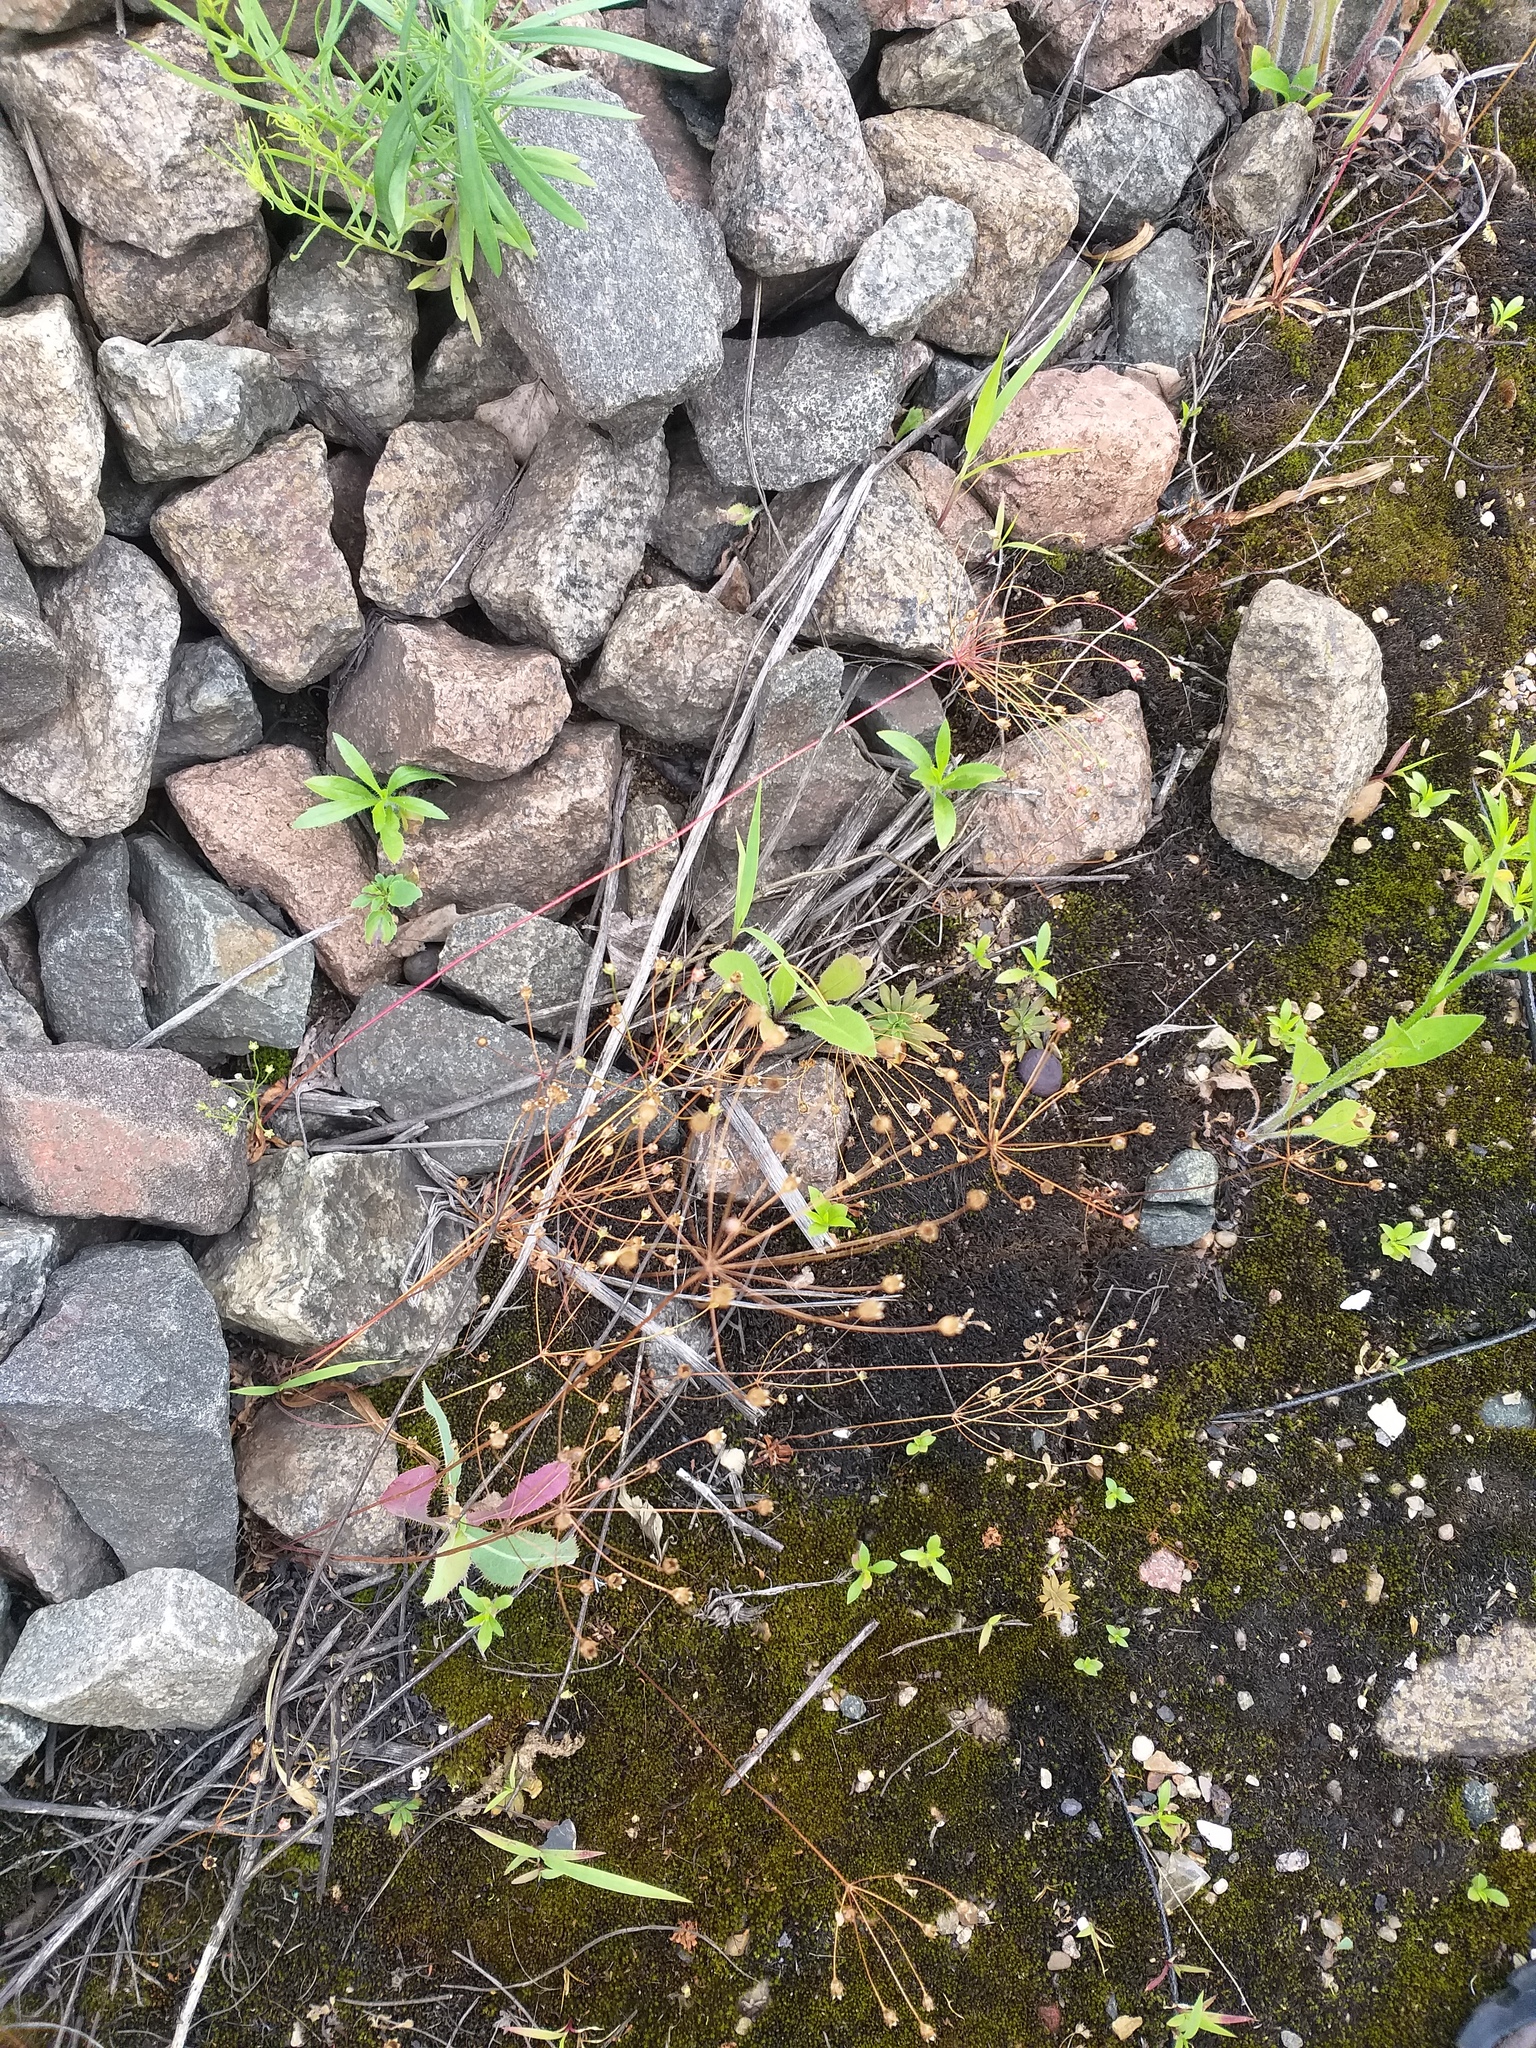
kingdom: Plantae
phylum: Tracheophyta
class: Magnoliopsida
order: Ericales
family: Primulaceae
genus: Androsace
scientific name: Androsace septentrionalis
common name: Hairy northern fairy-candelabra
